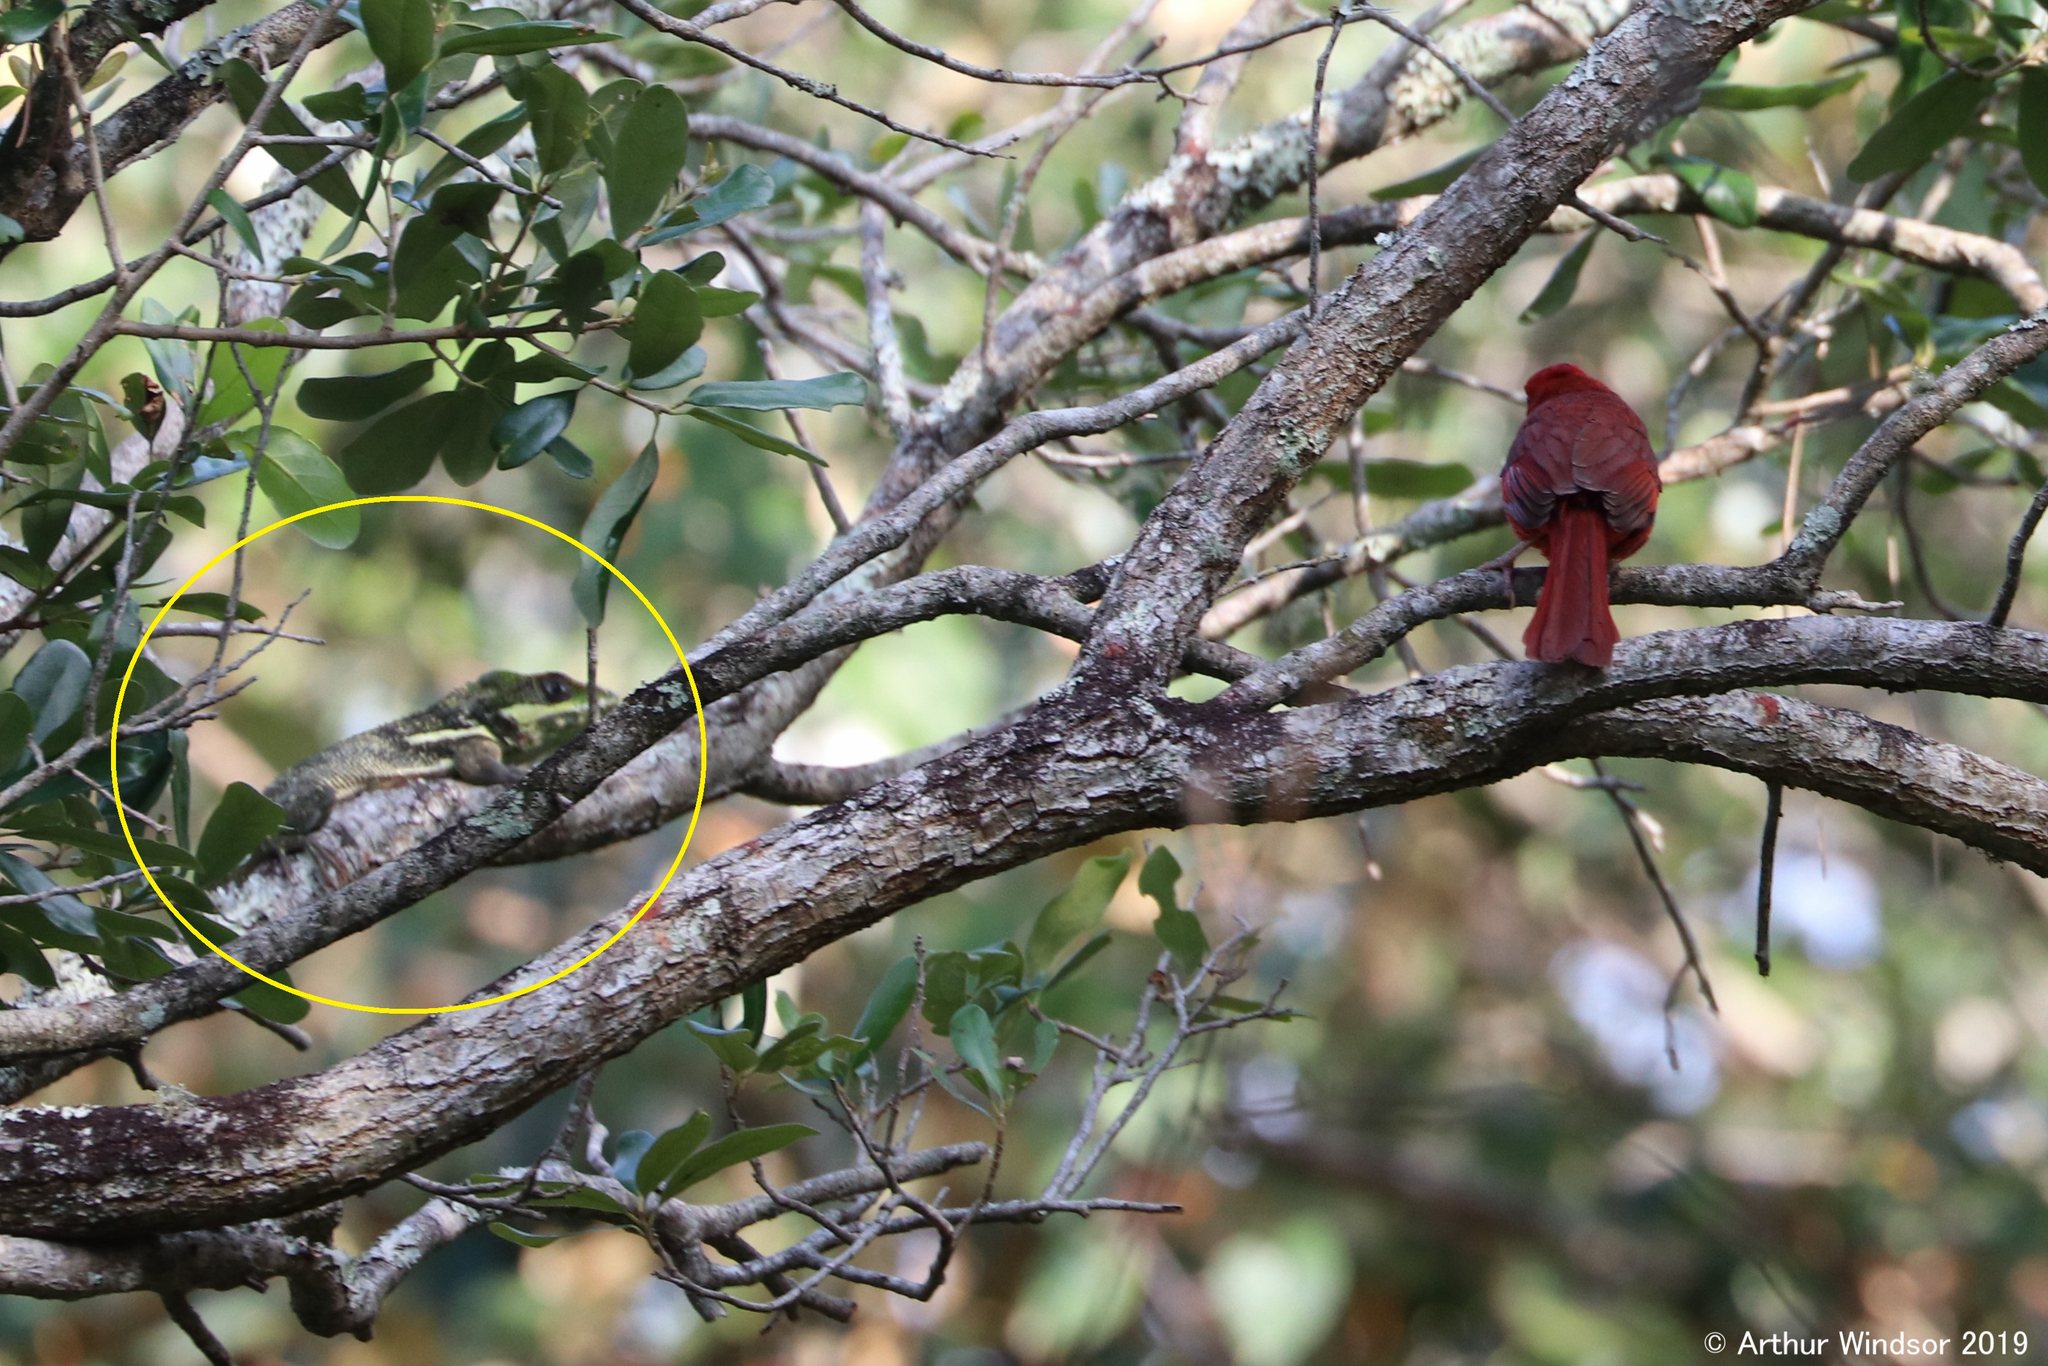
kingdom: Animalia
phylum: Chordata
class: Squamata
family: Dactyloidae
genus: Anolis
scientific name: Anolis equestris
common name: Knight anole
